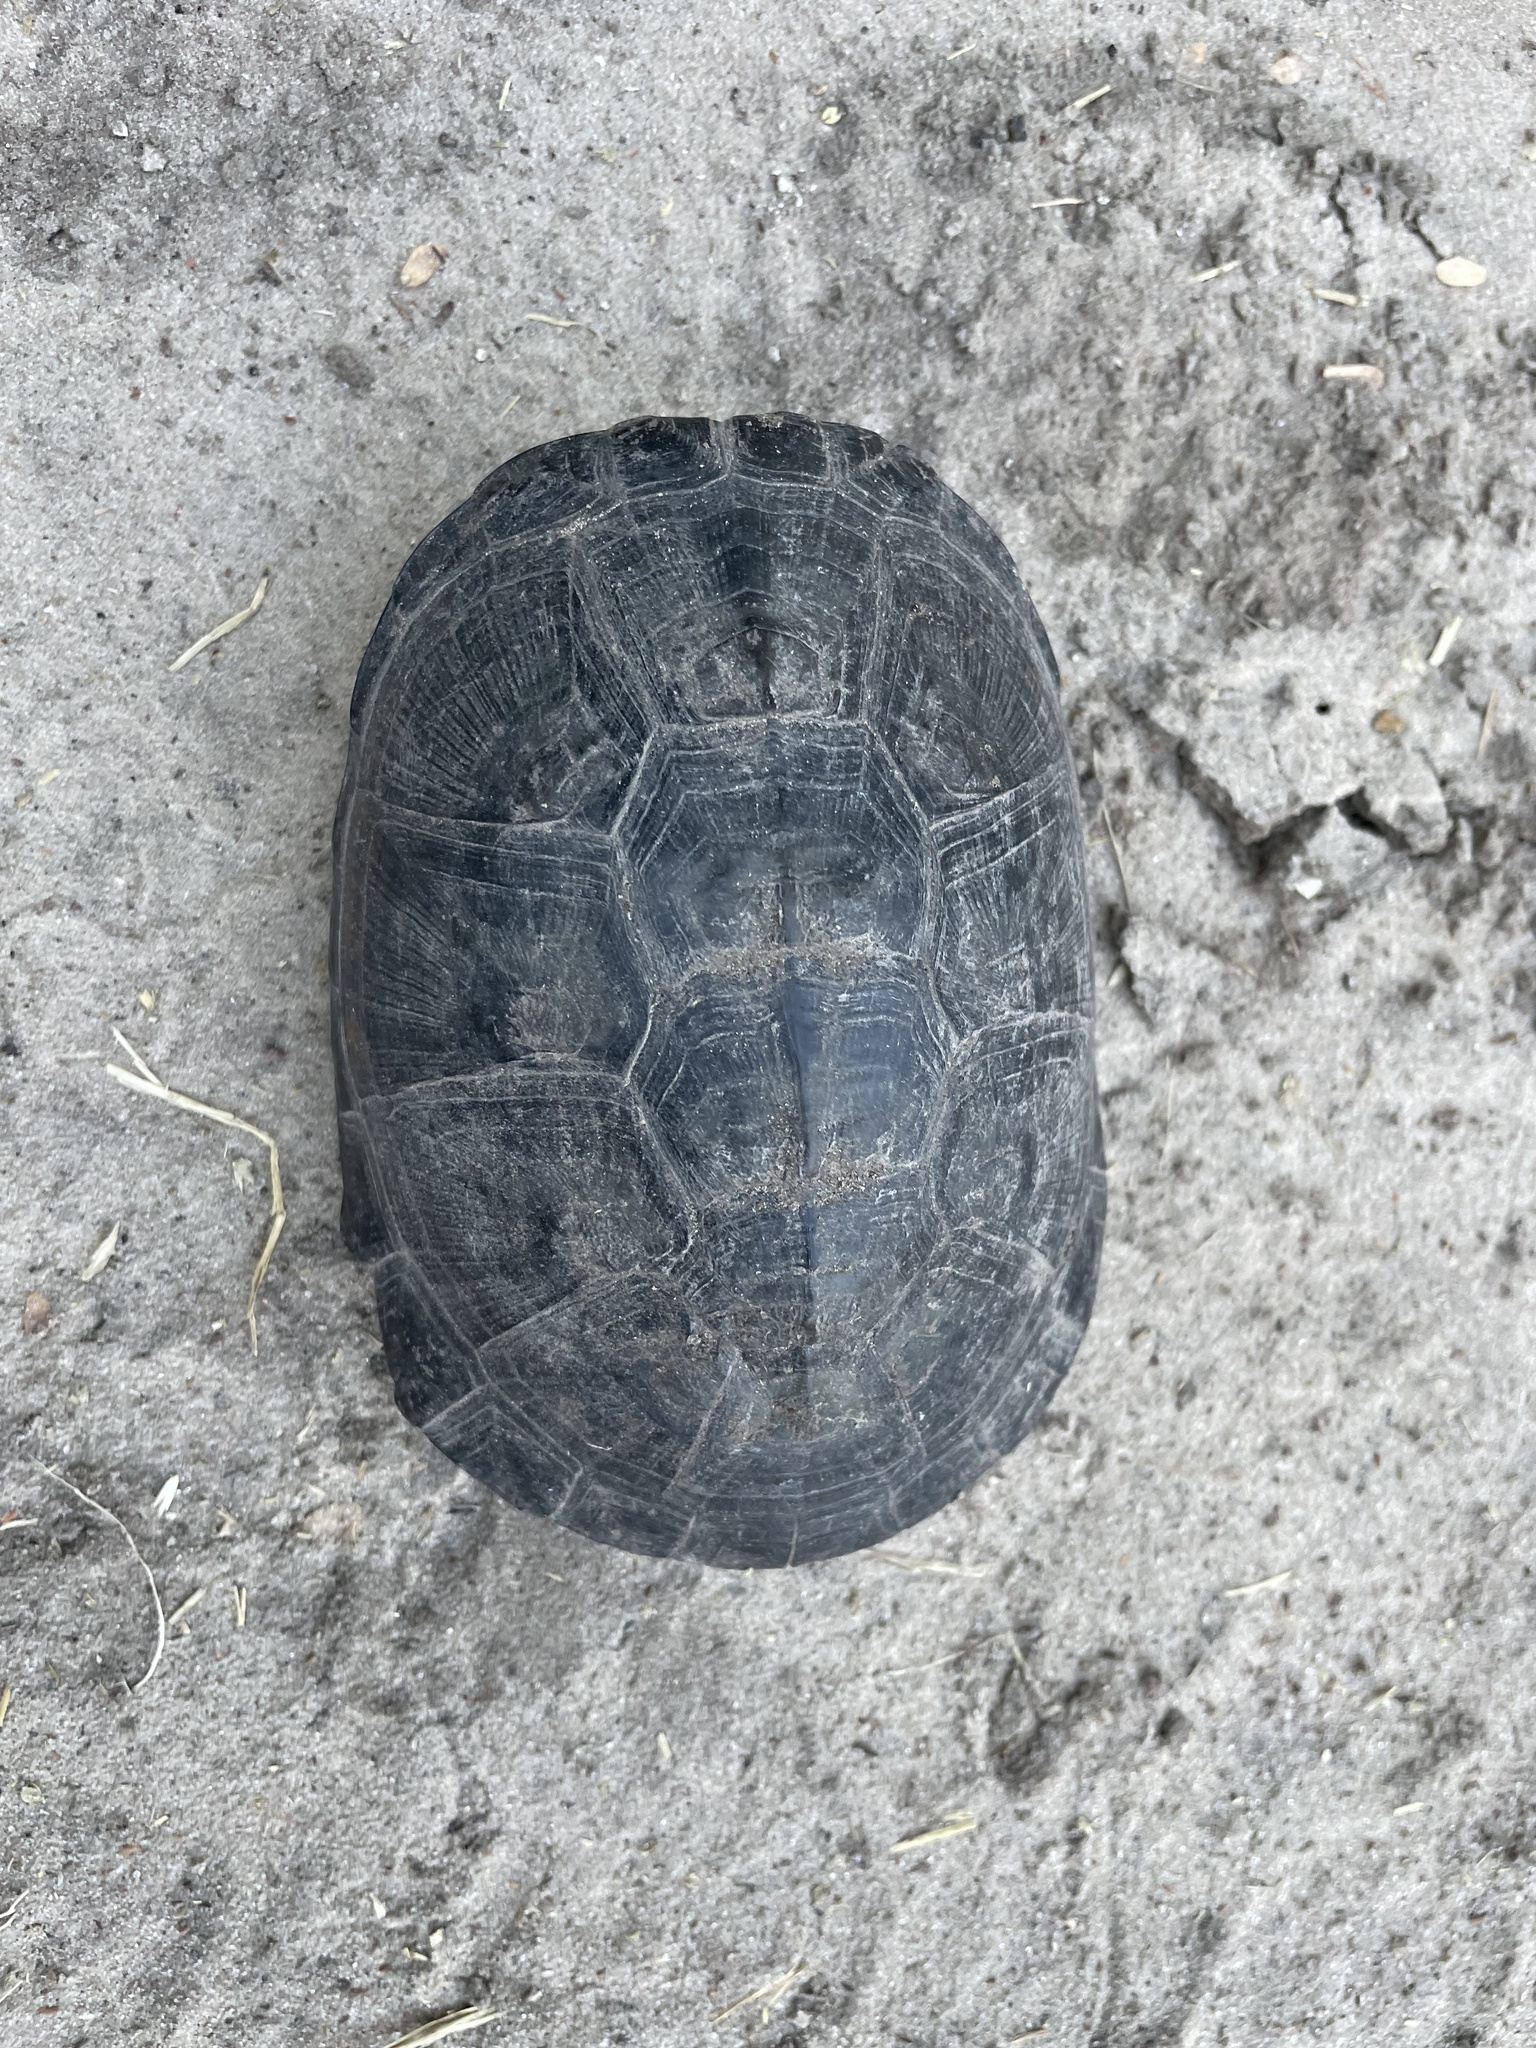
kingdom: Animalia
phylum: Chordata
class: Testudines
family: Pelomedusidae
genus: Pelusios
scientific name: Pelusios bechuanicus
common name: Okavango mud turtle
